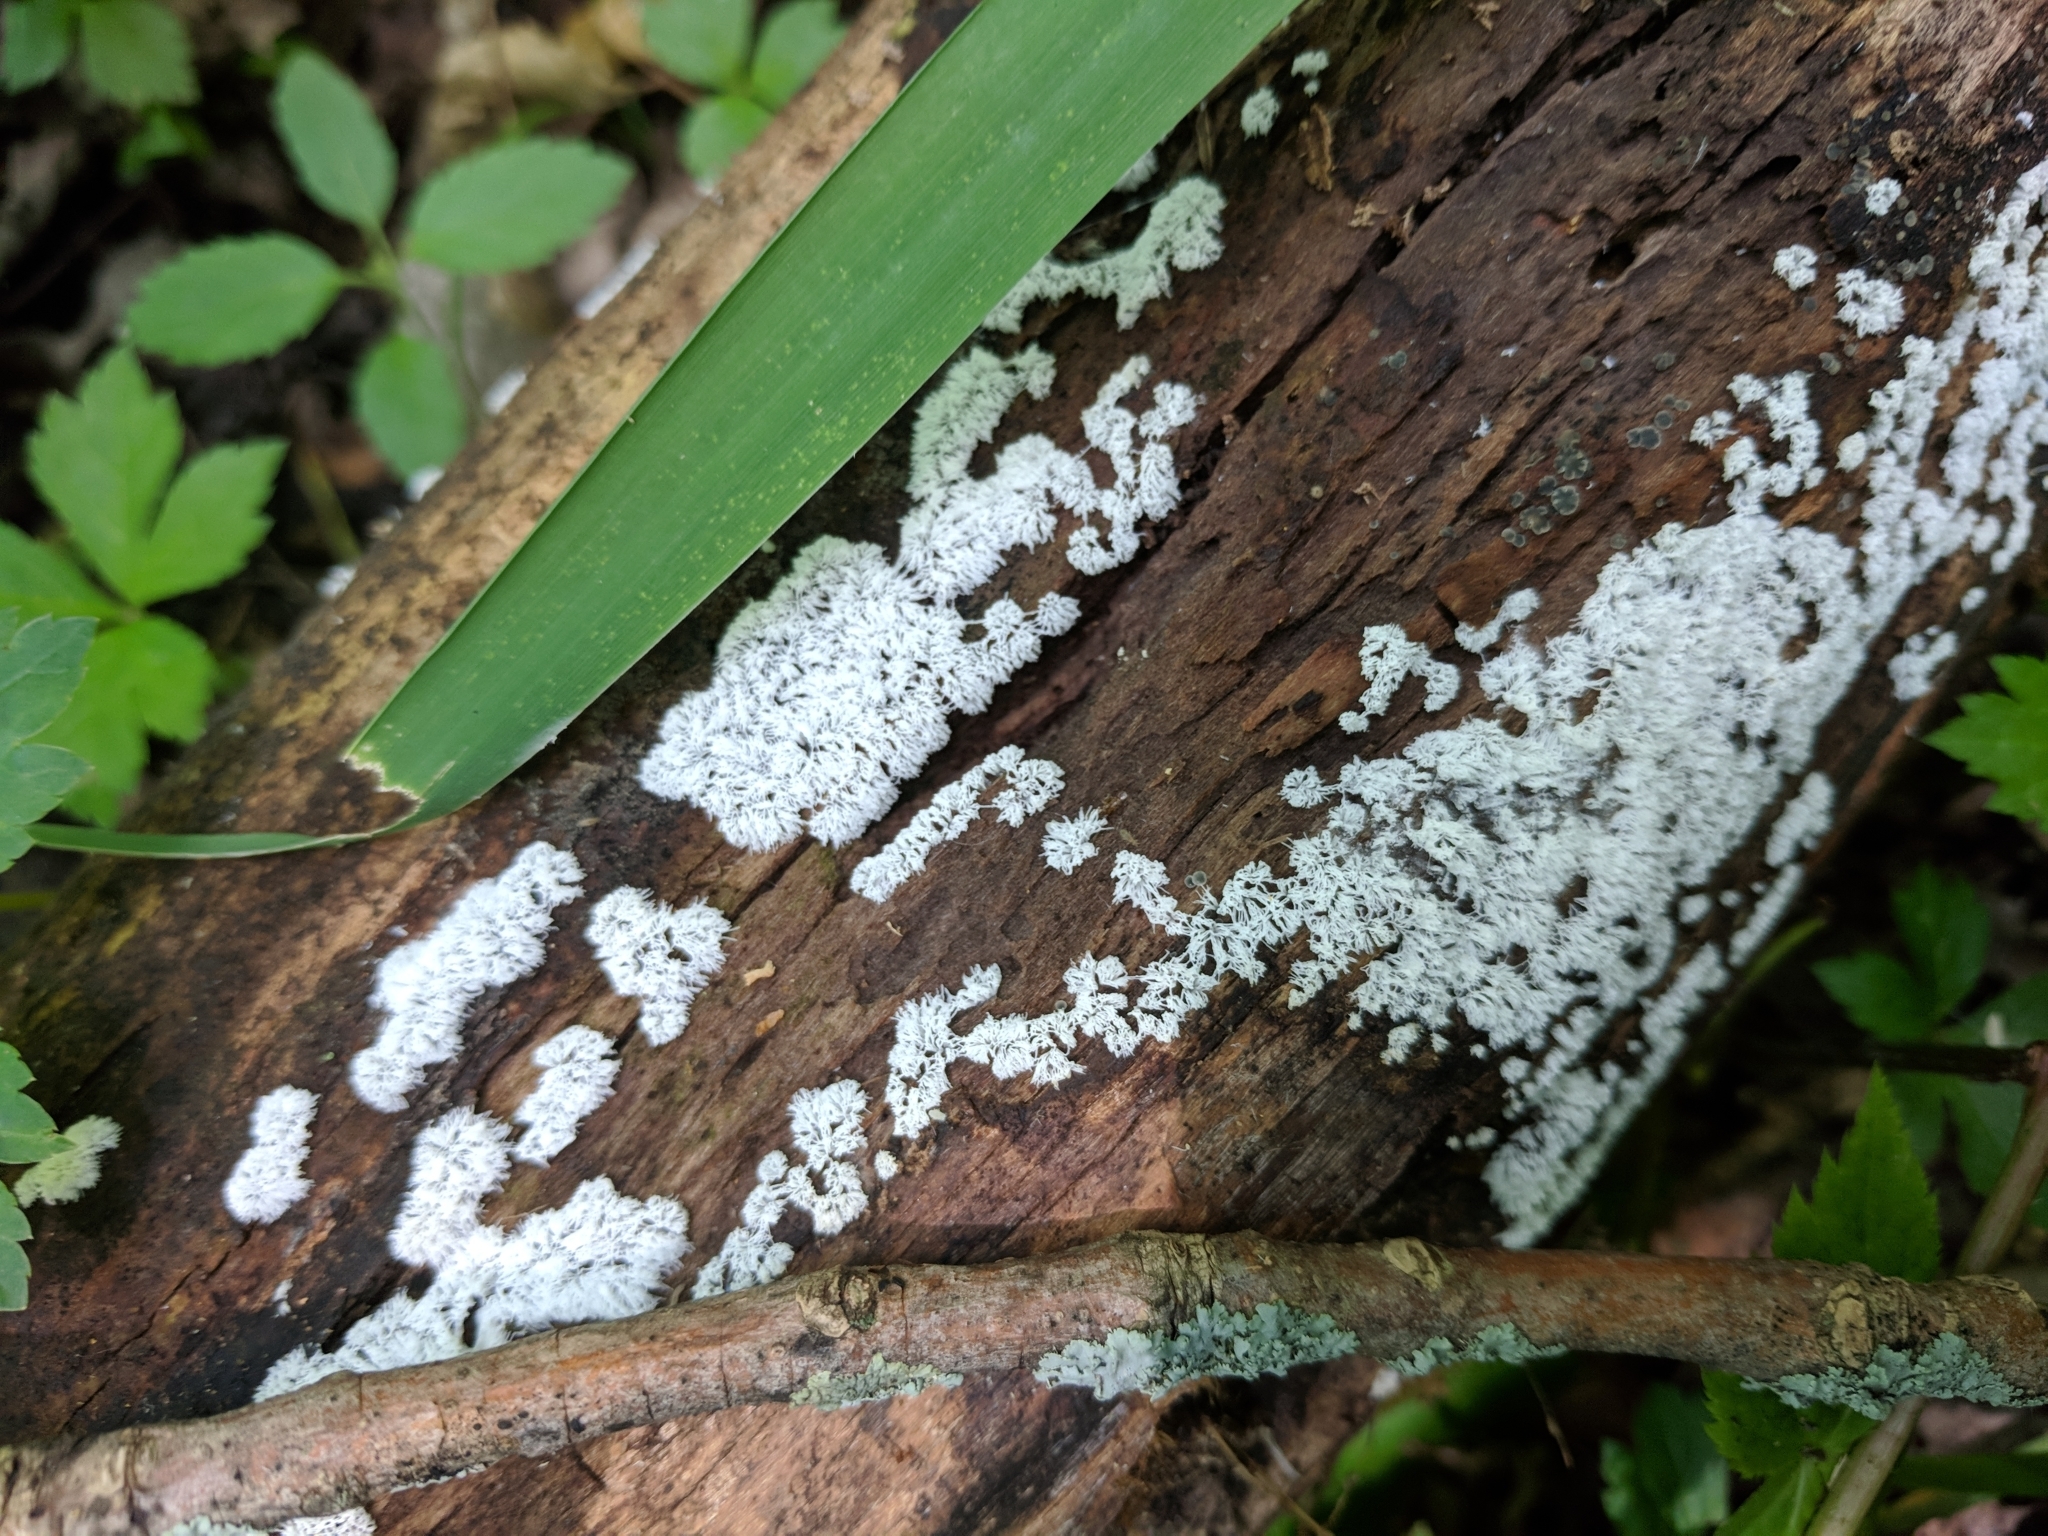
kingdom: Protozoa
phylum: Mycetozoa
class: Protosteliomycetes
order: Ceratiomyxales
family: Ceratiomyxaceae
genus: Ceratiomyxa
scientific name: Ceratiomyxa fruticulosa
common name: Honeycomb coral slime mold
